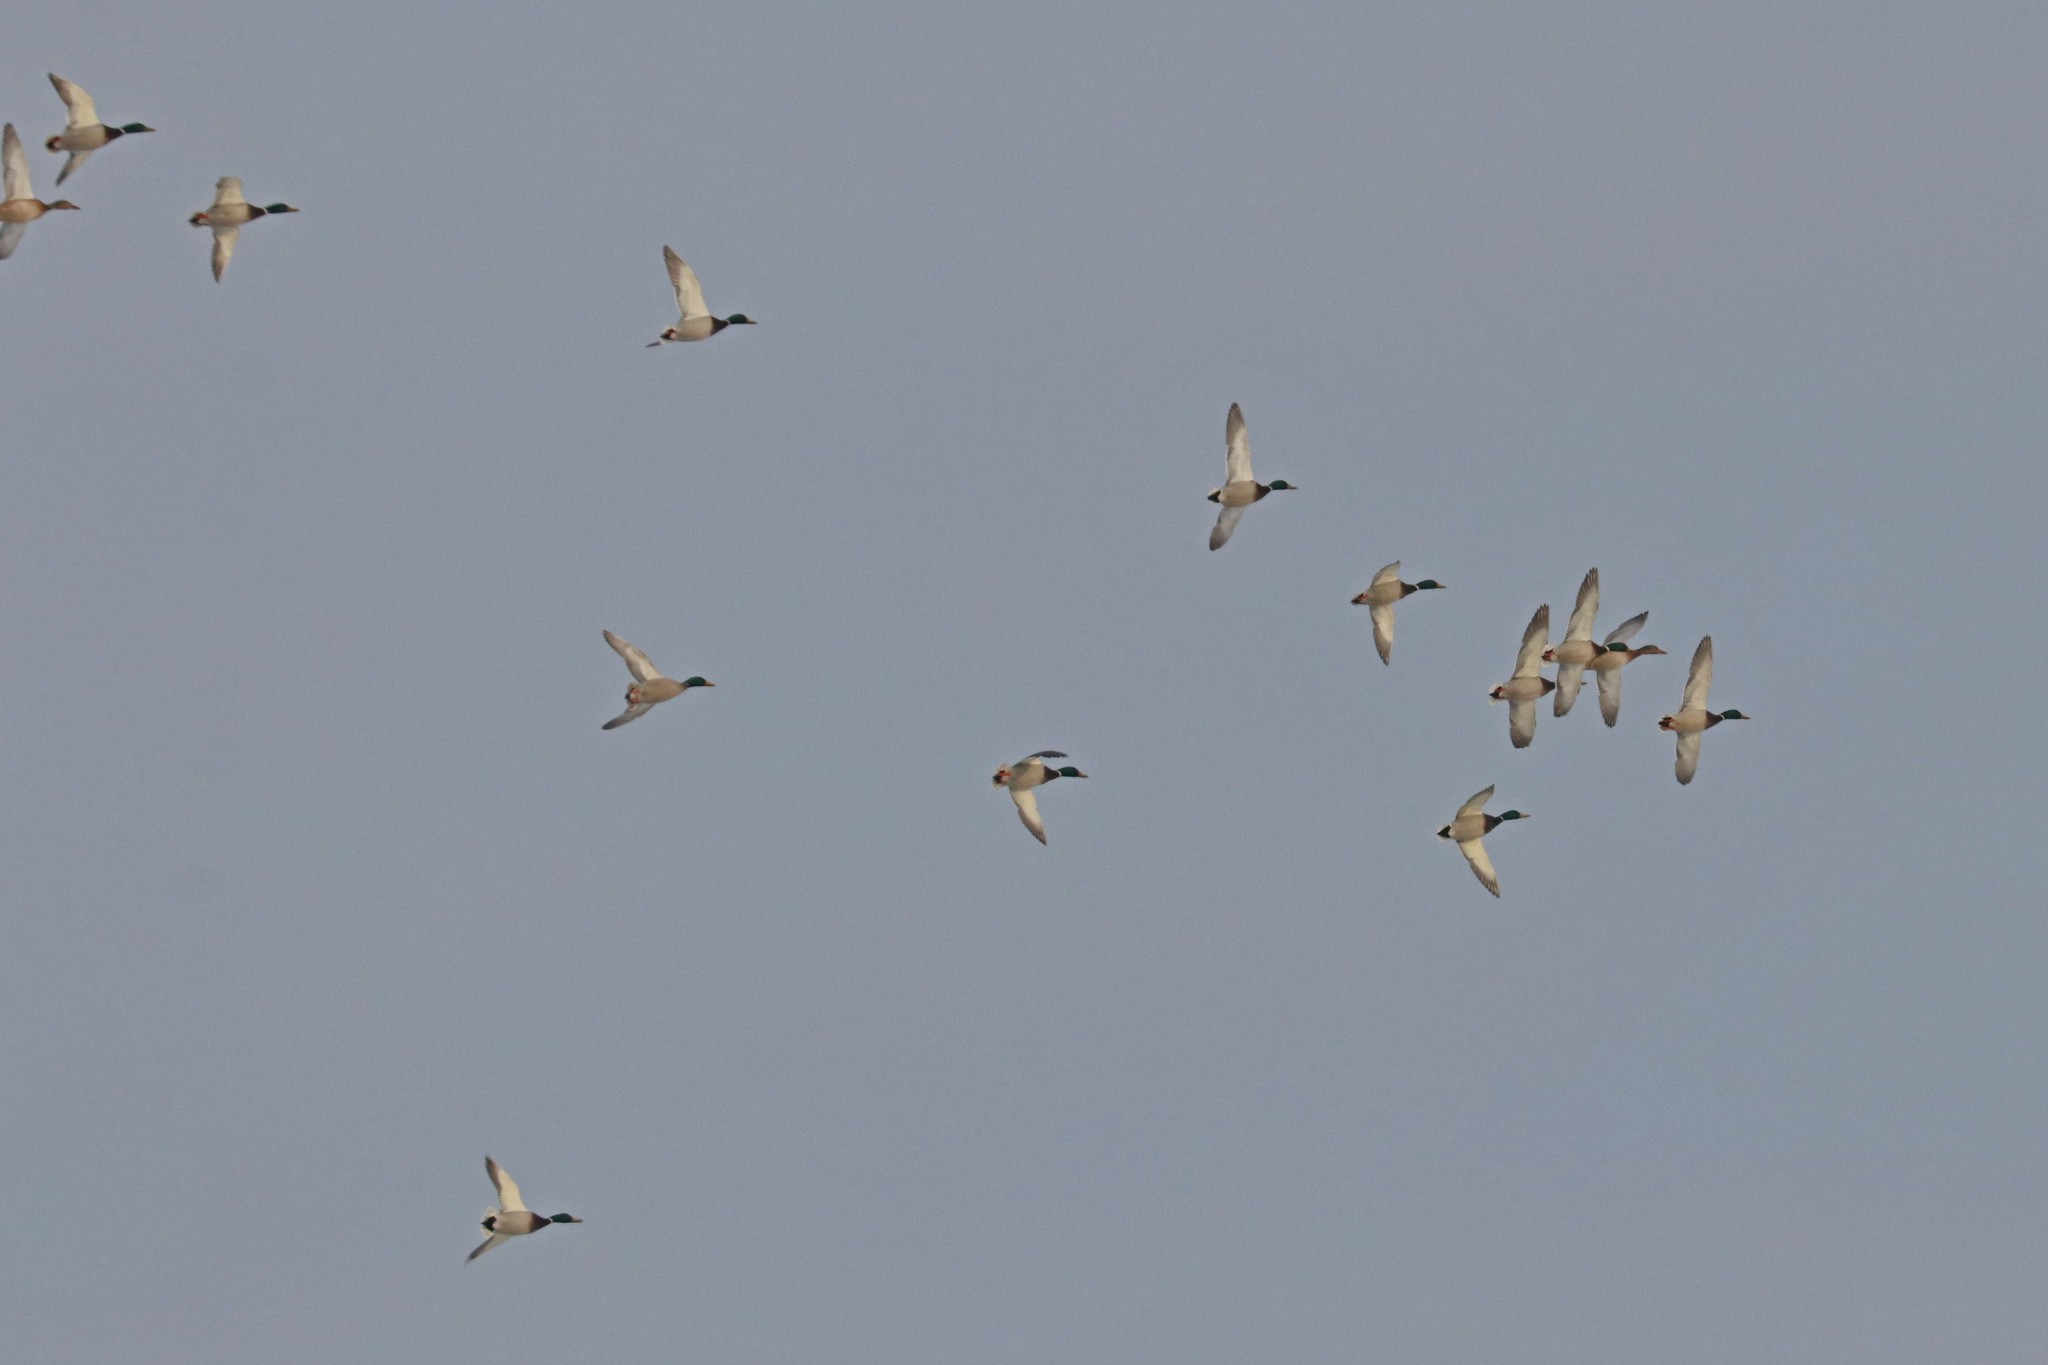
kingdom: Animalia
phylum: Chordata
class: Aves
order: Anseriformes
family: Anatidae
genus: Anas
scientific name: Anas platyrhynchos
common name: Mallard
